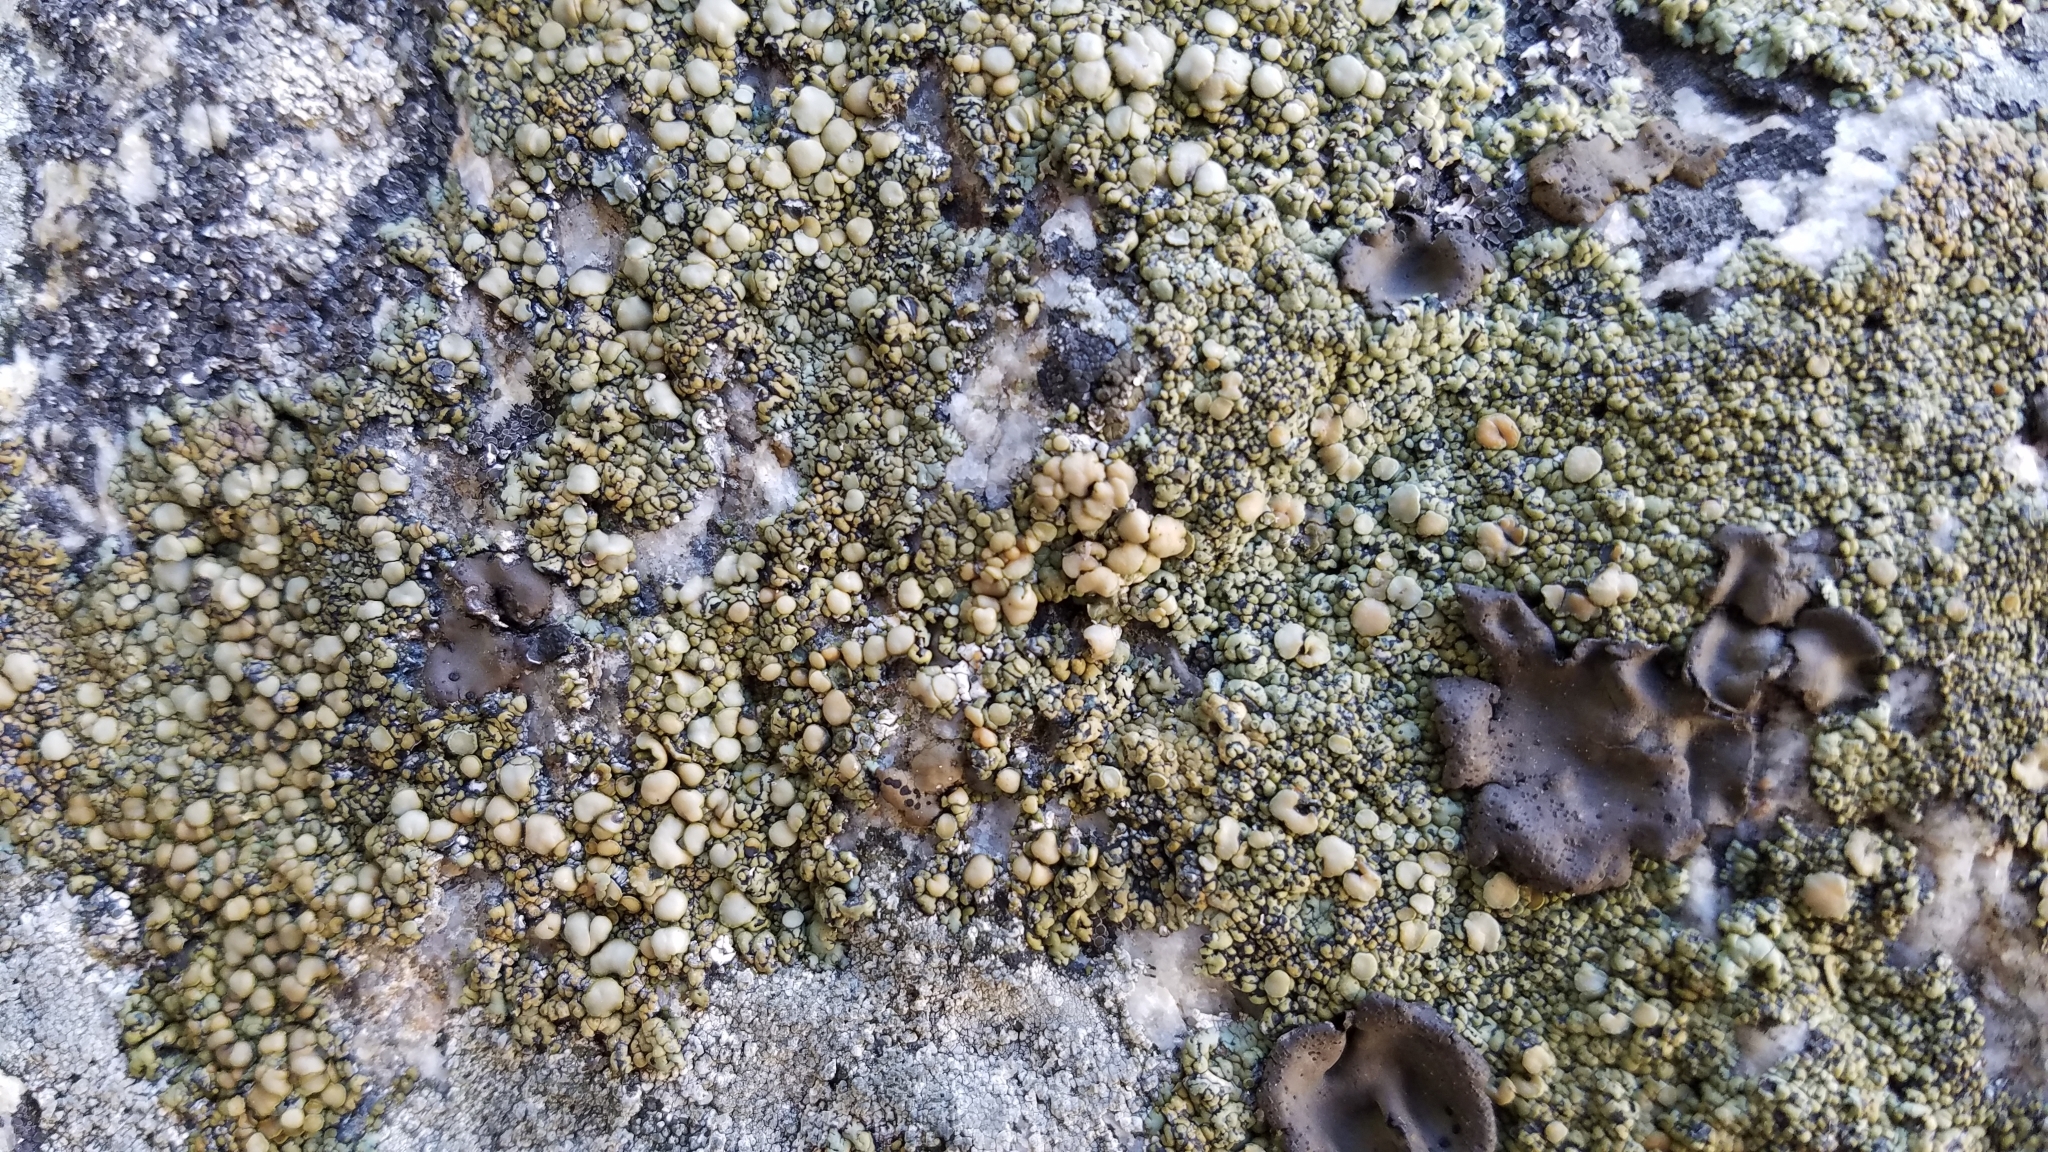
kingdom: Fungi
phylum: Ascomycota
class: Lecanoromycetes
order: Lecanorales
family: Lecanoraceae
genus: Lecanora
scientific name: Lecanora polytropa
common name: Granite-speck rim lichen
